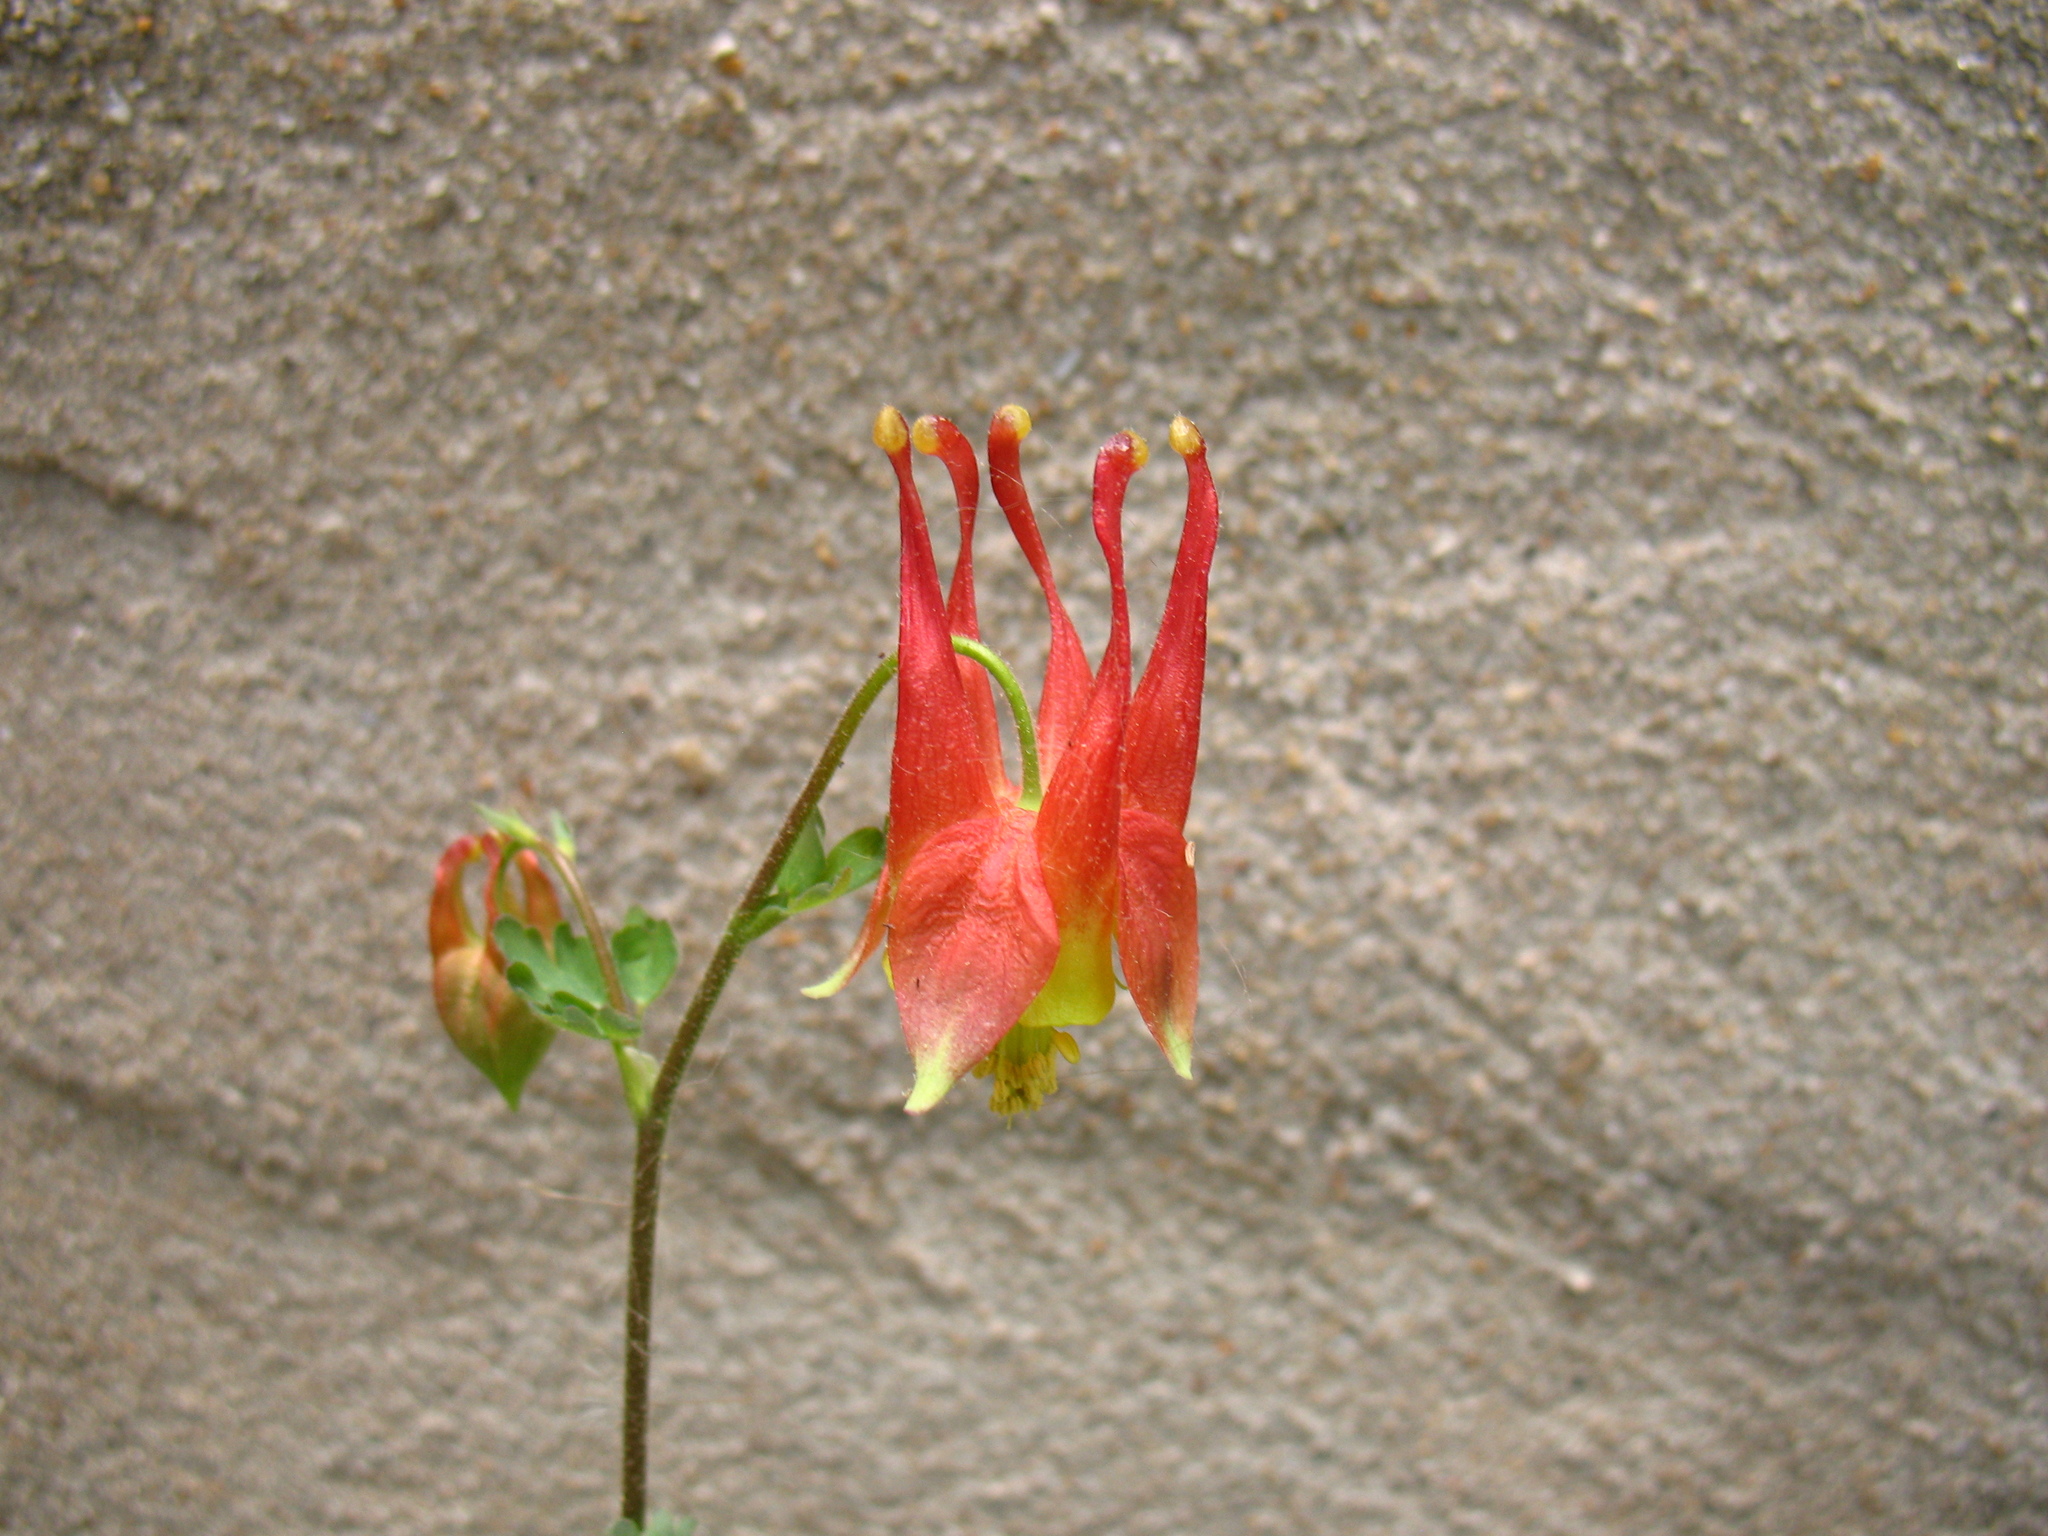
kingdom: Plantae
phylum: Tracheophyta
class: Magnoliopsida
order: Ranunculales
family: Ranunculaceae
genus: Aquilegia
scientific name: Aquilegia canadensis
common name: American columbine
